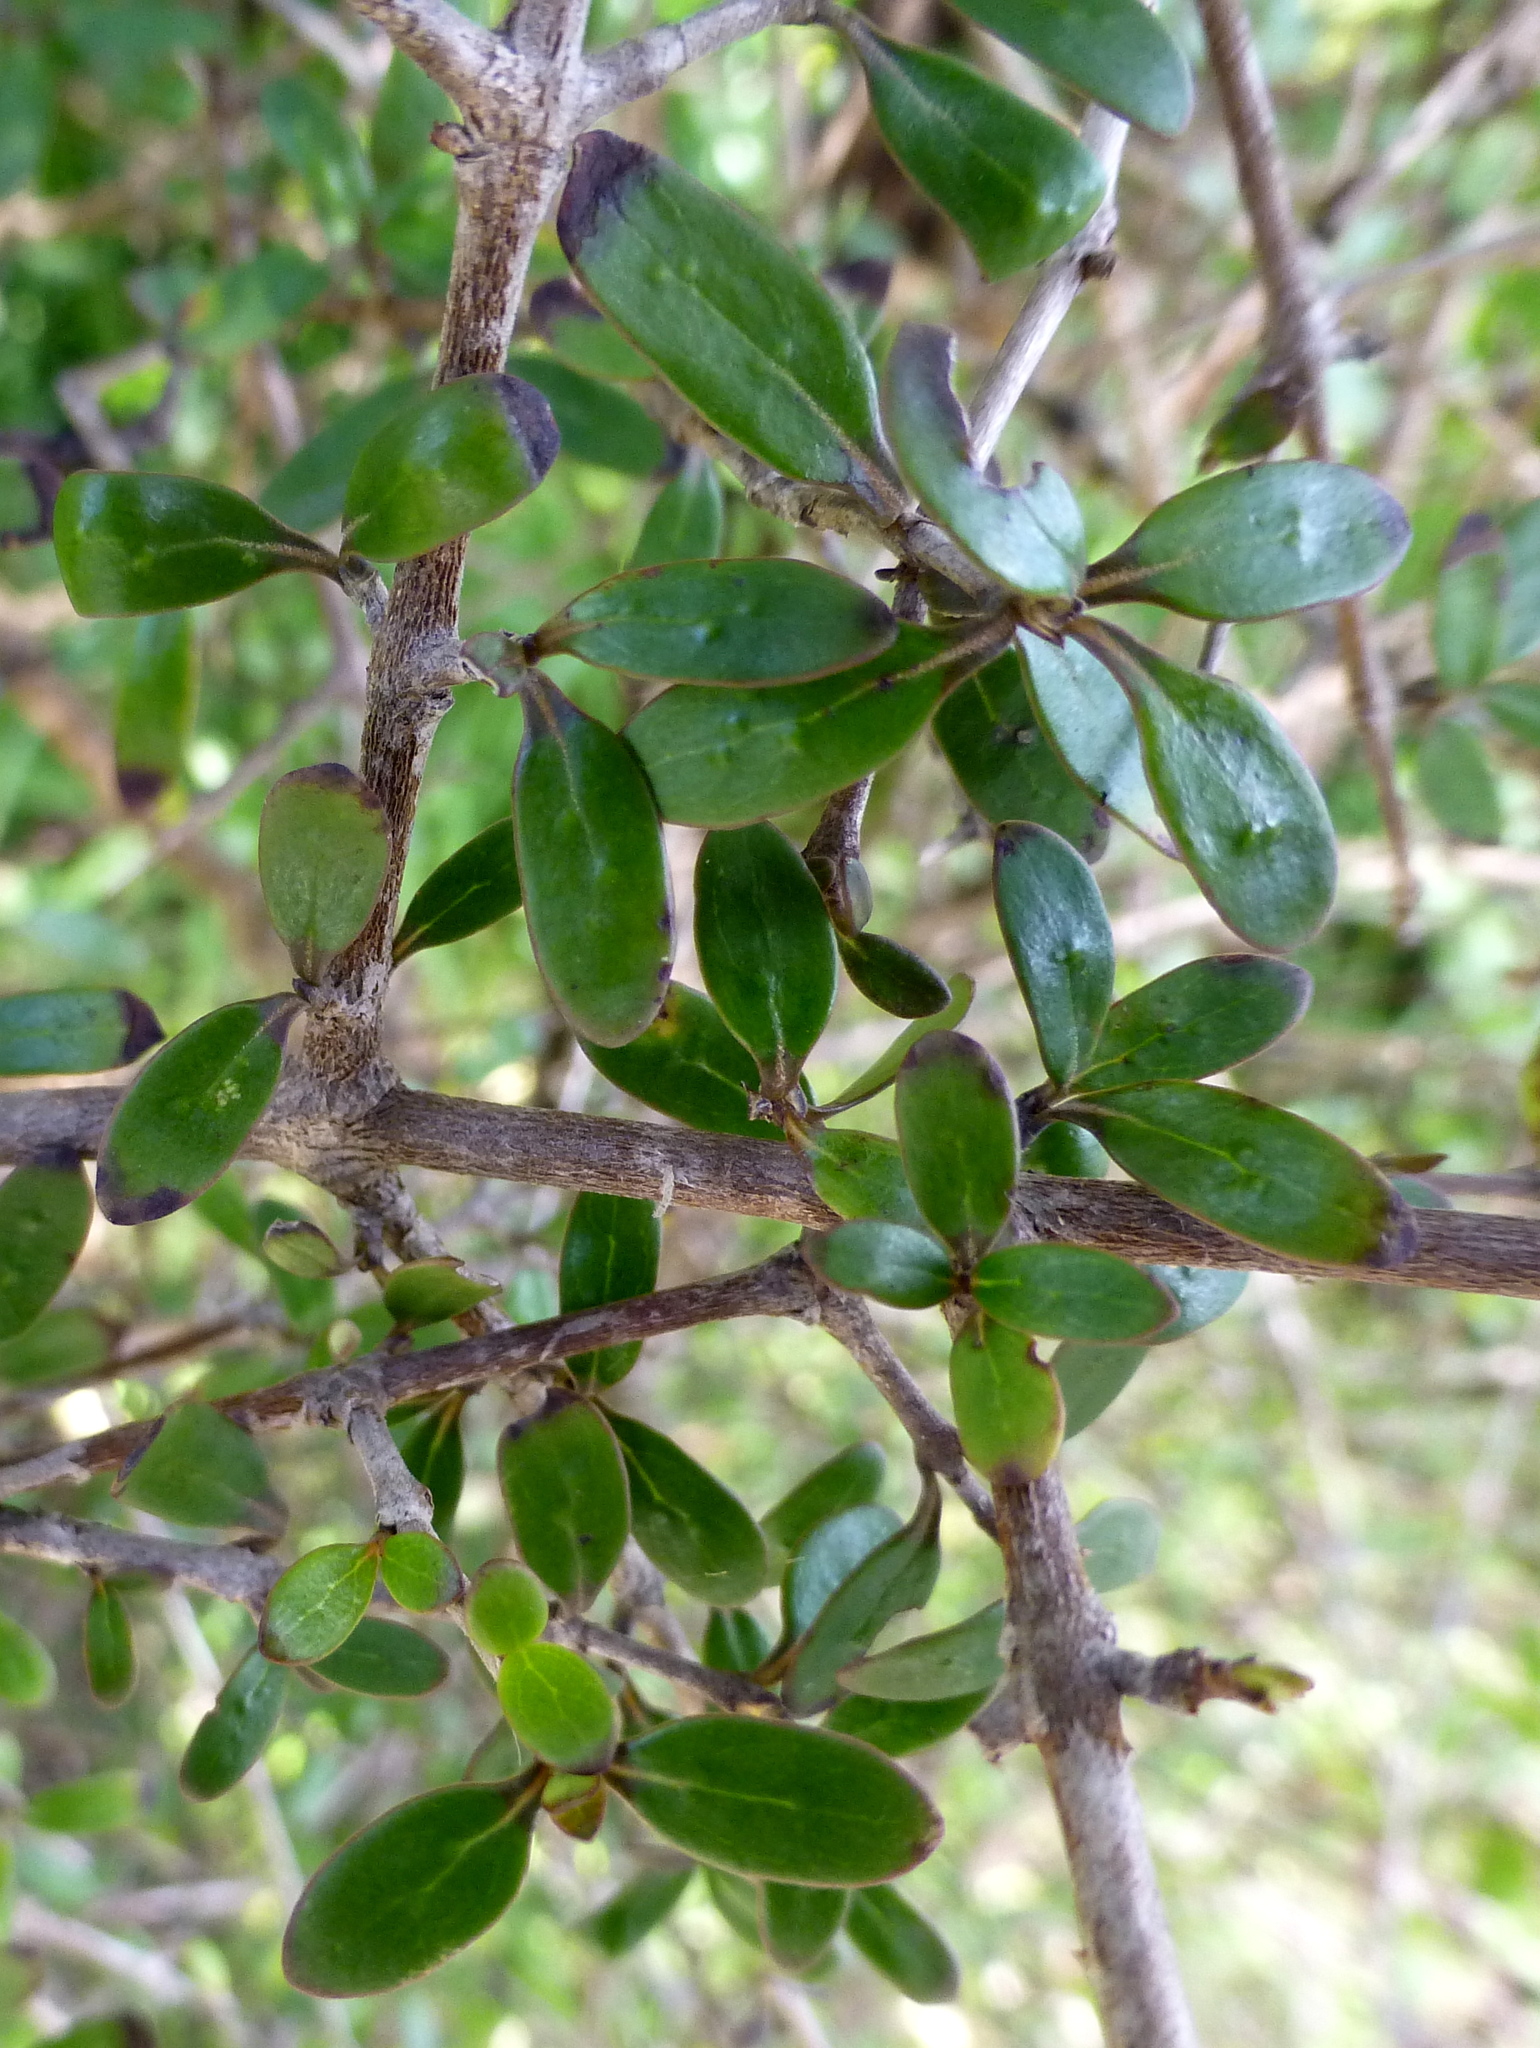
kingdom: Plantae
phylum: Tracheophyta
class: Magnoliopsida
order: Gentianales
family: Rubiaceae
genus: Coprosma
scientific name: Coprosma propinqua
